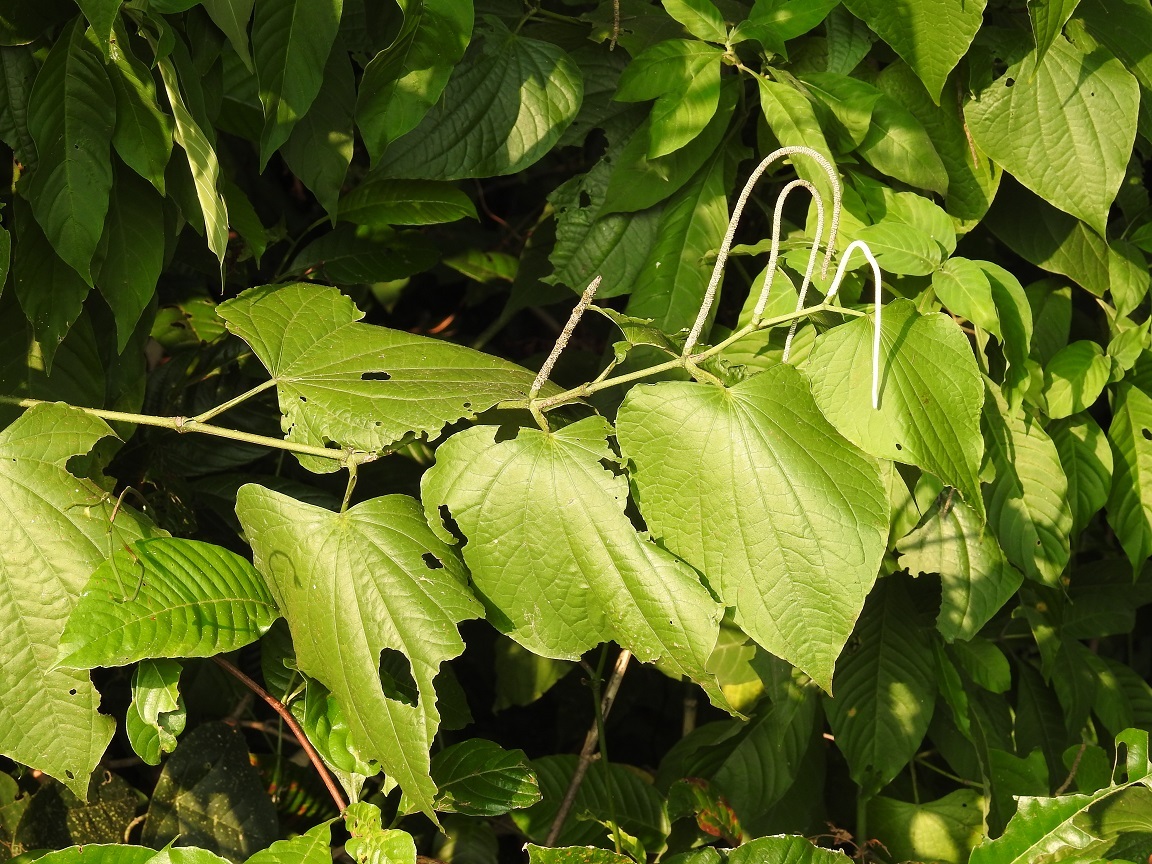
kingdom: Plantae
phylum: Tracheophyta
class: Magnoliopsida
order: Piperales
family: Piperaceae
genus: Piper
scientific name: Piper marginatum
